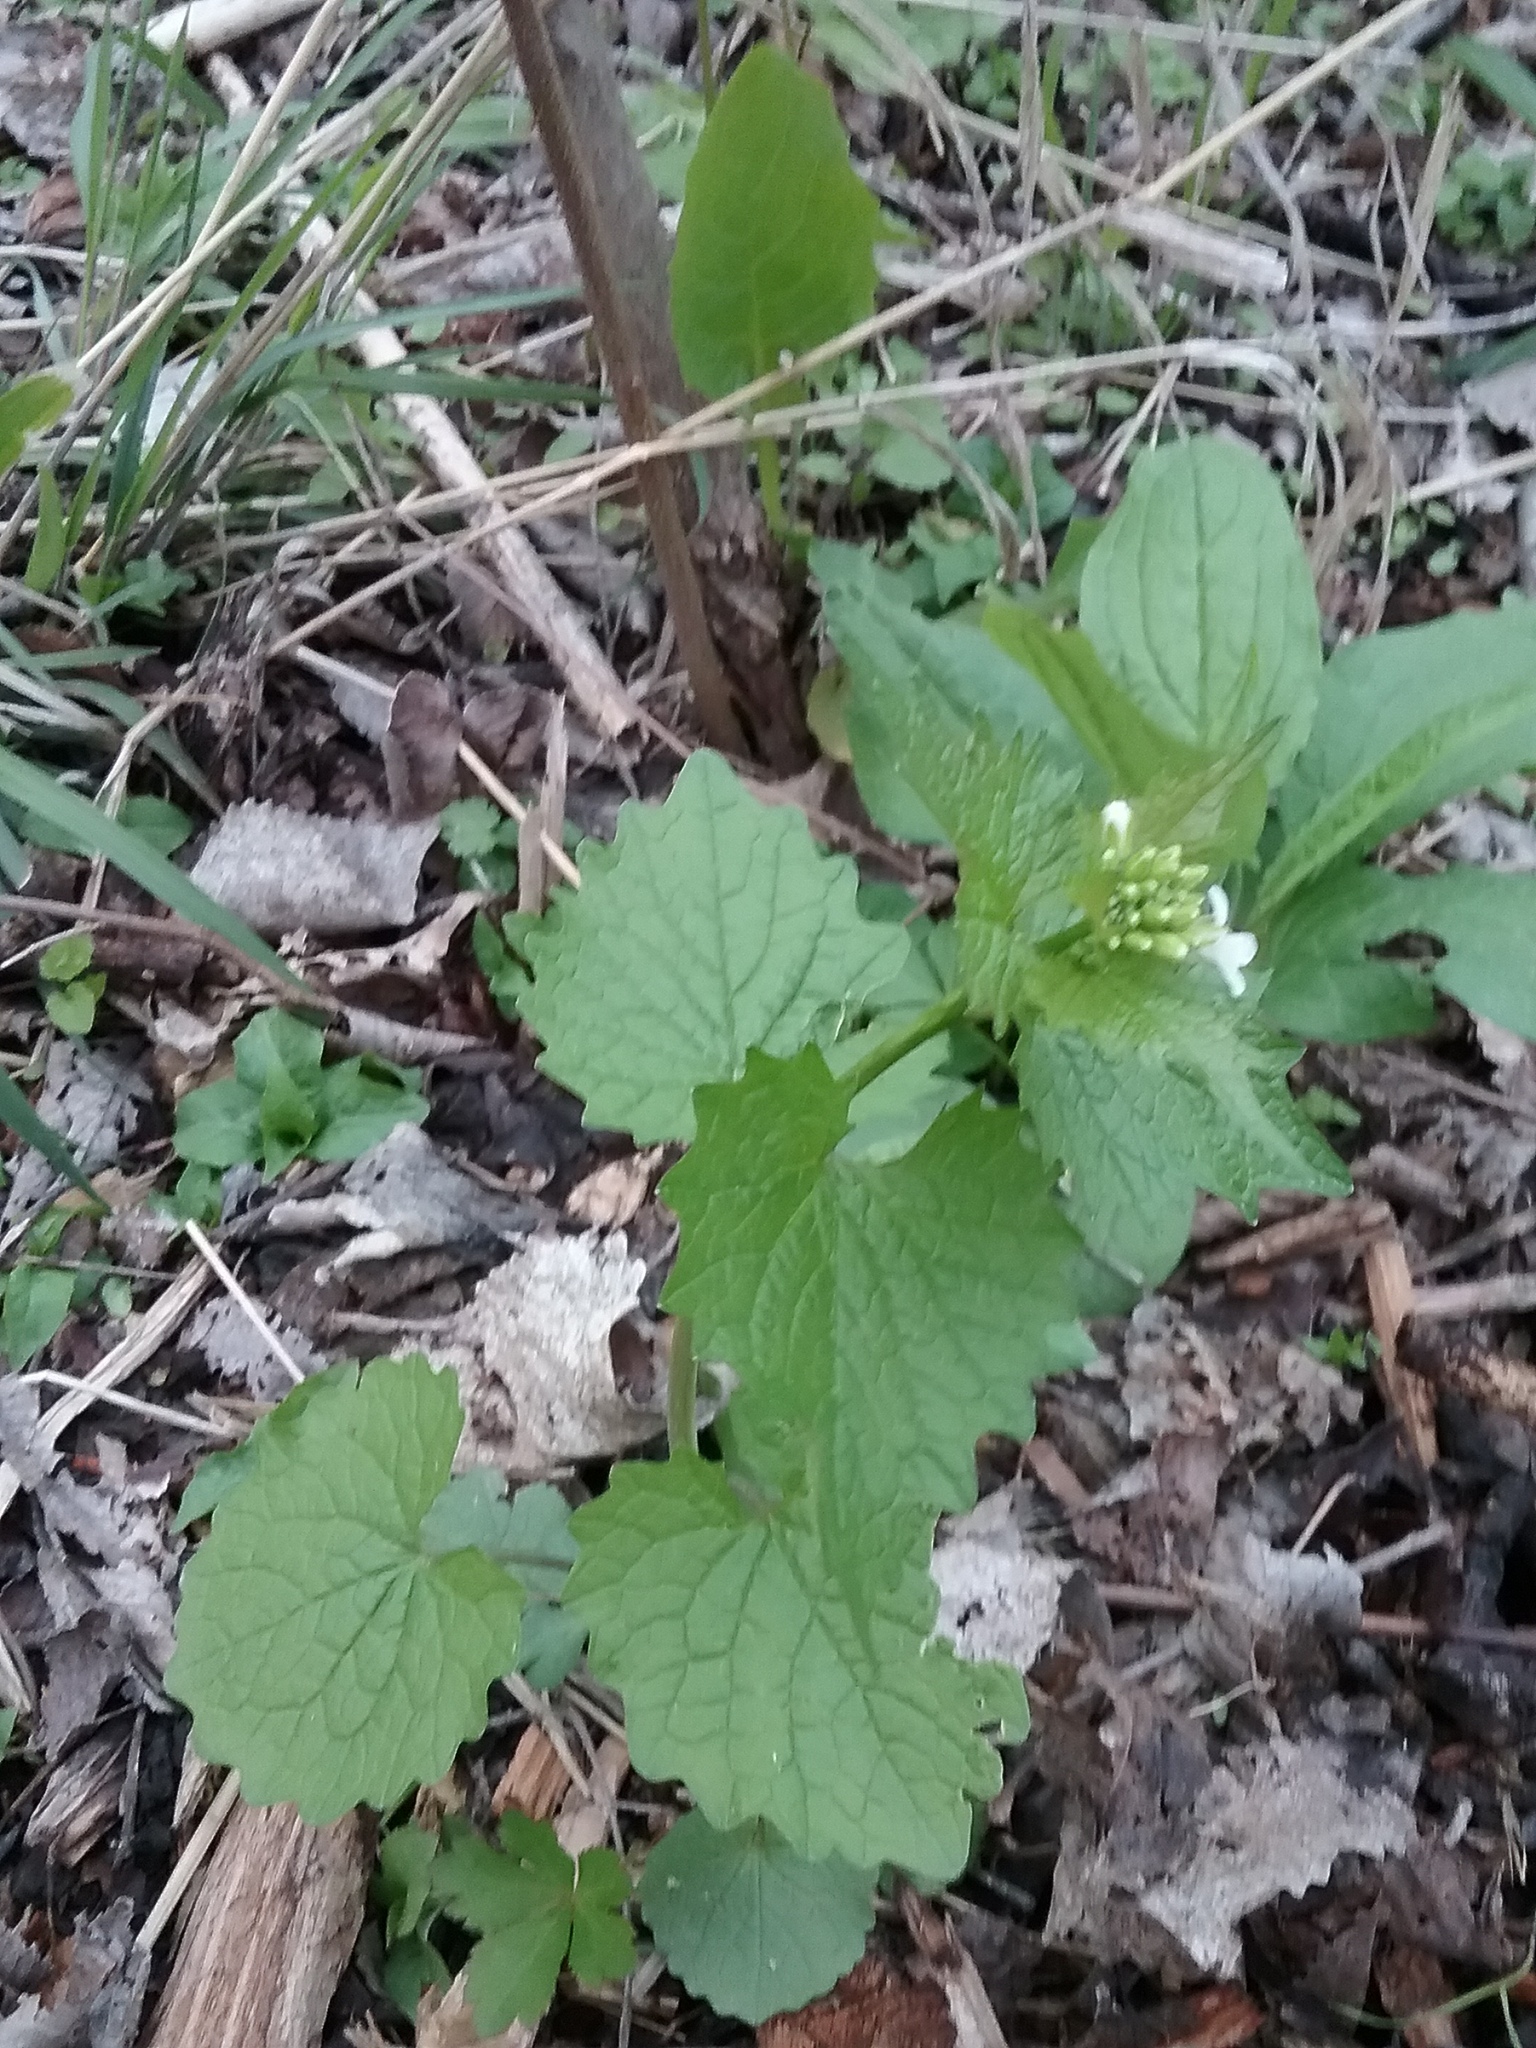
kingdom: Plantae
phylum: Tracheophyta
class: Magnoliopsida
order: Brassicales
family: Brassicaceae
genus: Alliaria
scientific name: Alliaria petiolata
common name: Garlic mustard
